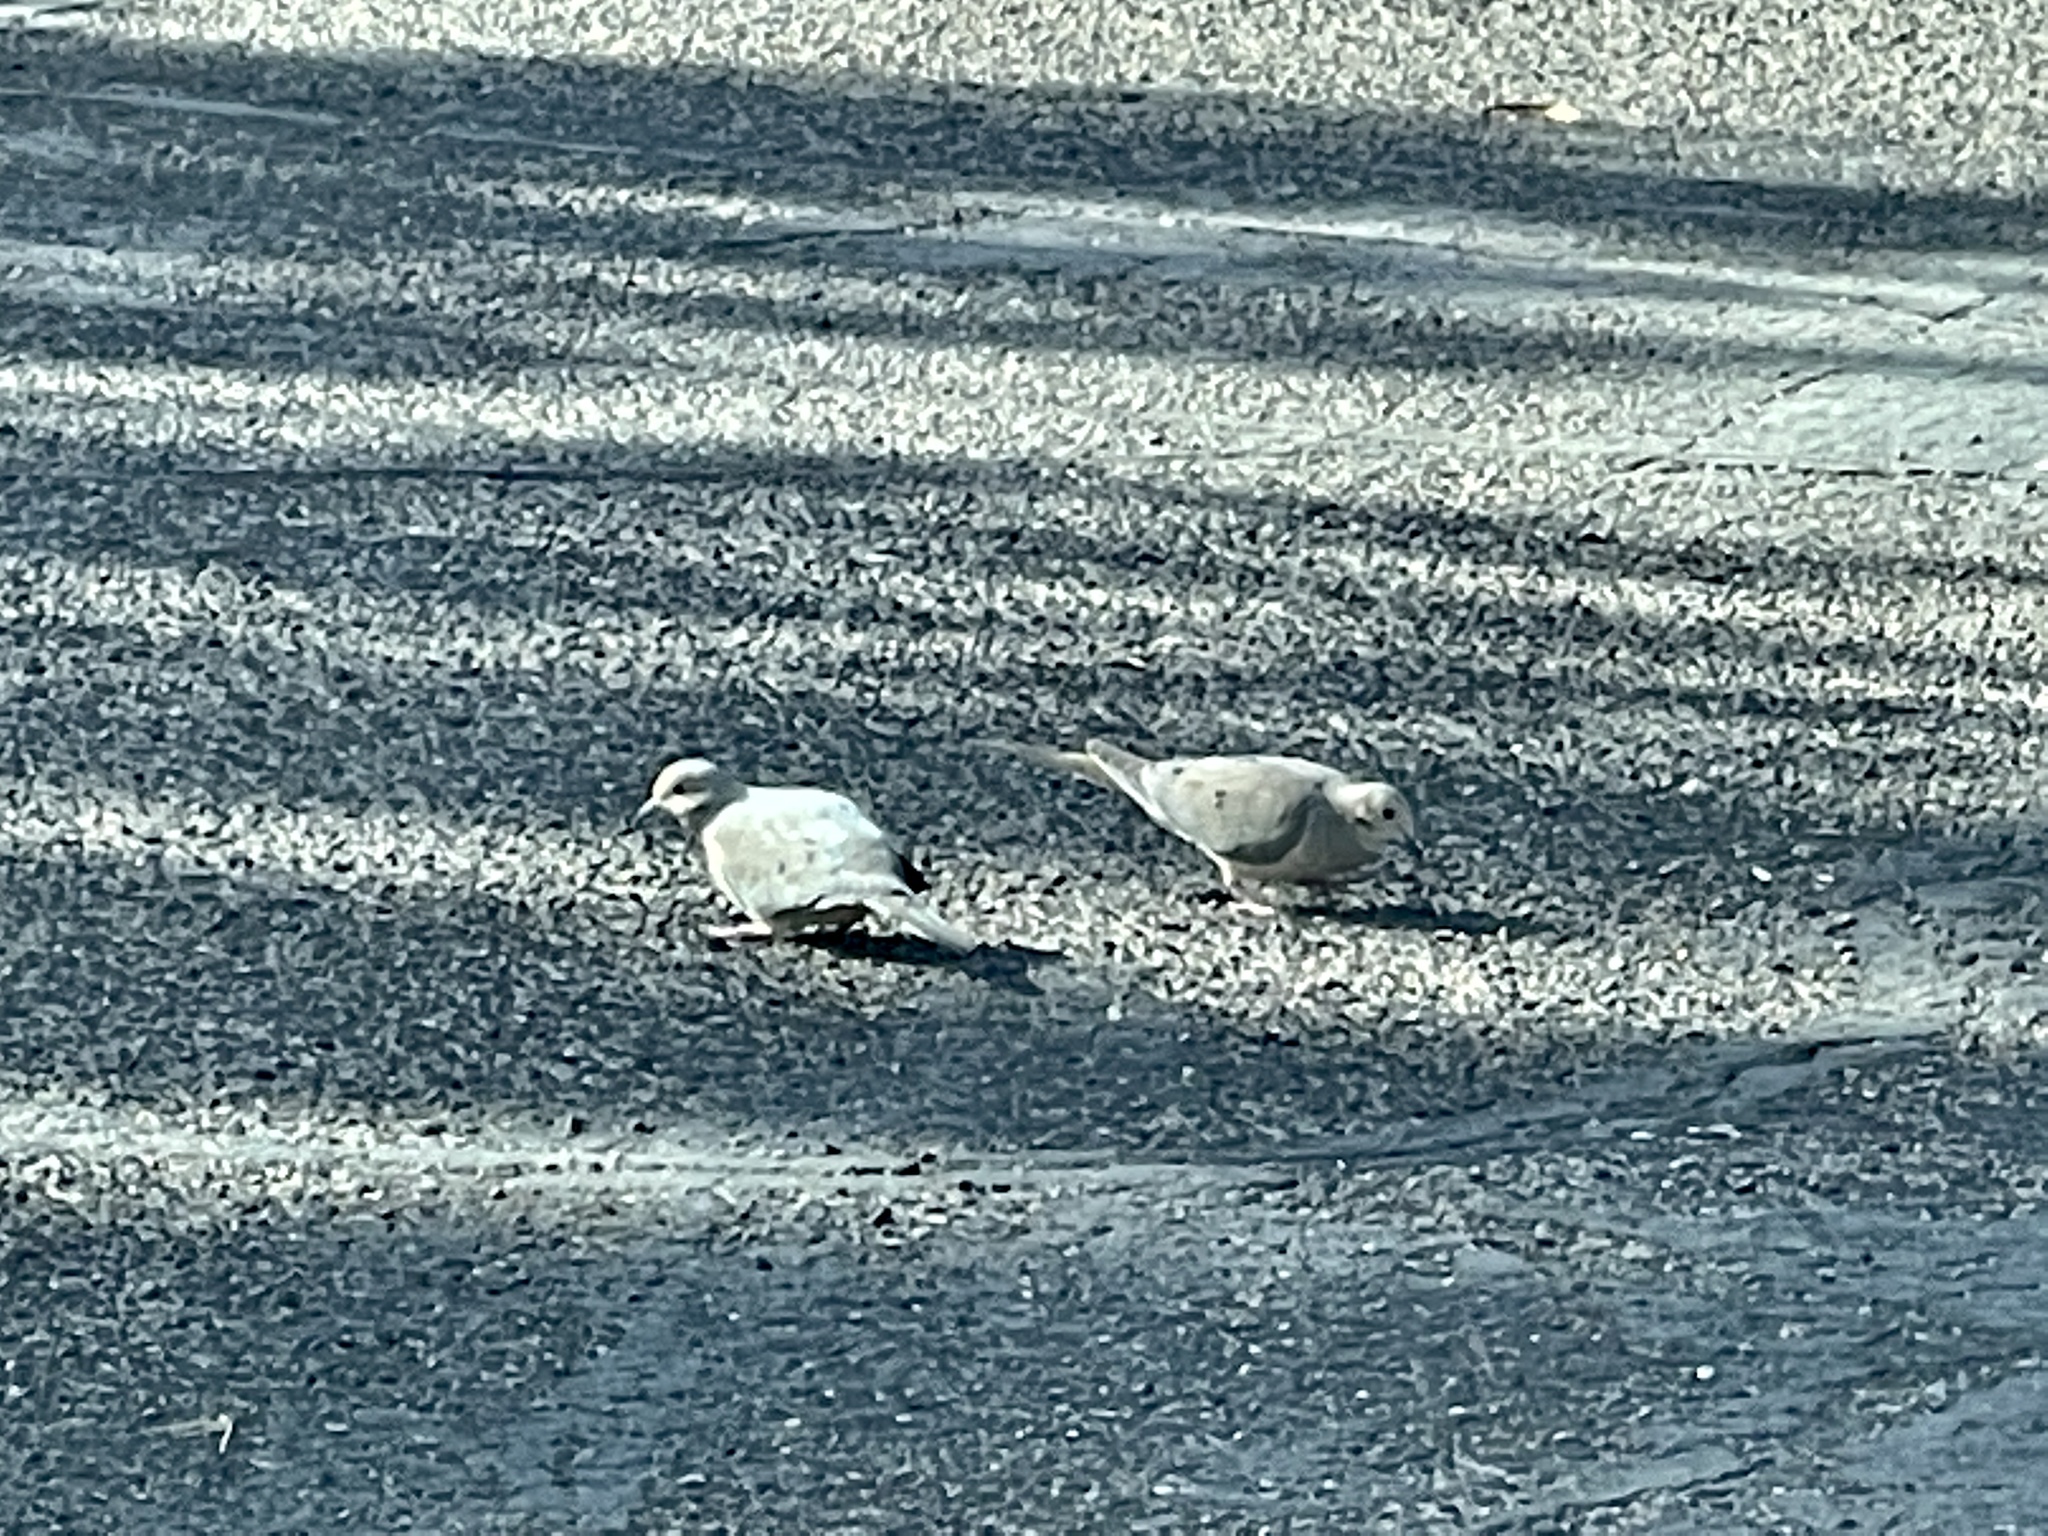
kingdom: Animalia
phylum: Chordata
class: Aves
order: Columbiformes
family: Columbidae
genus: Zenaida
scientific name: Zenaida macroura
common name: Mourning dove
